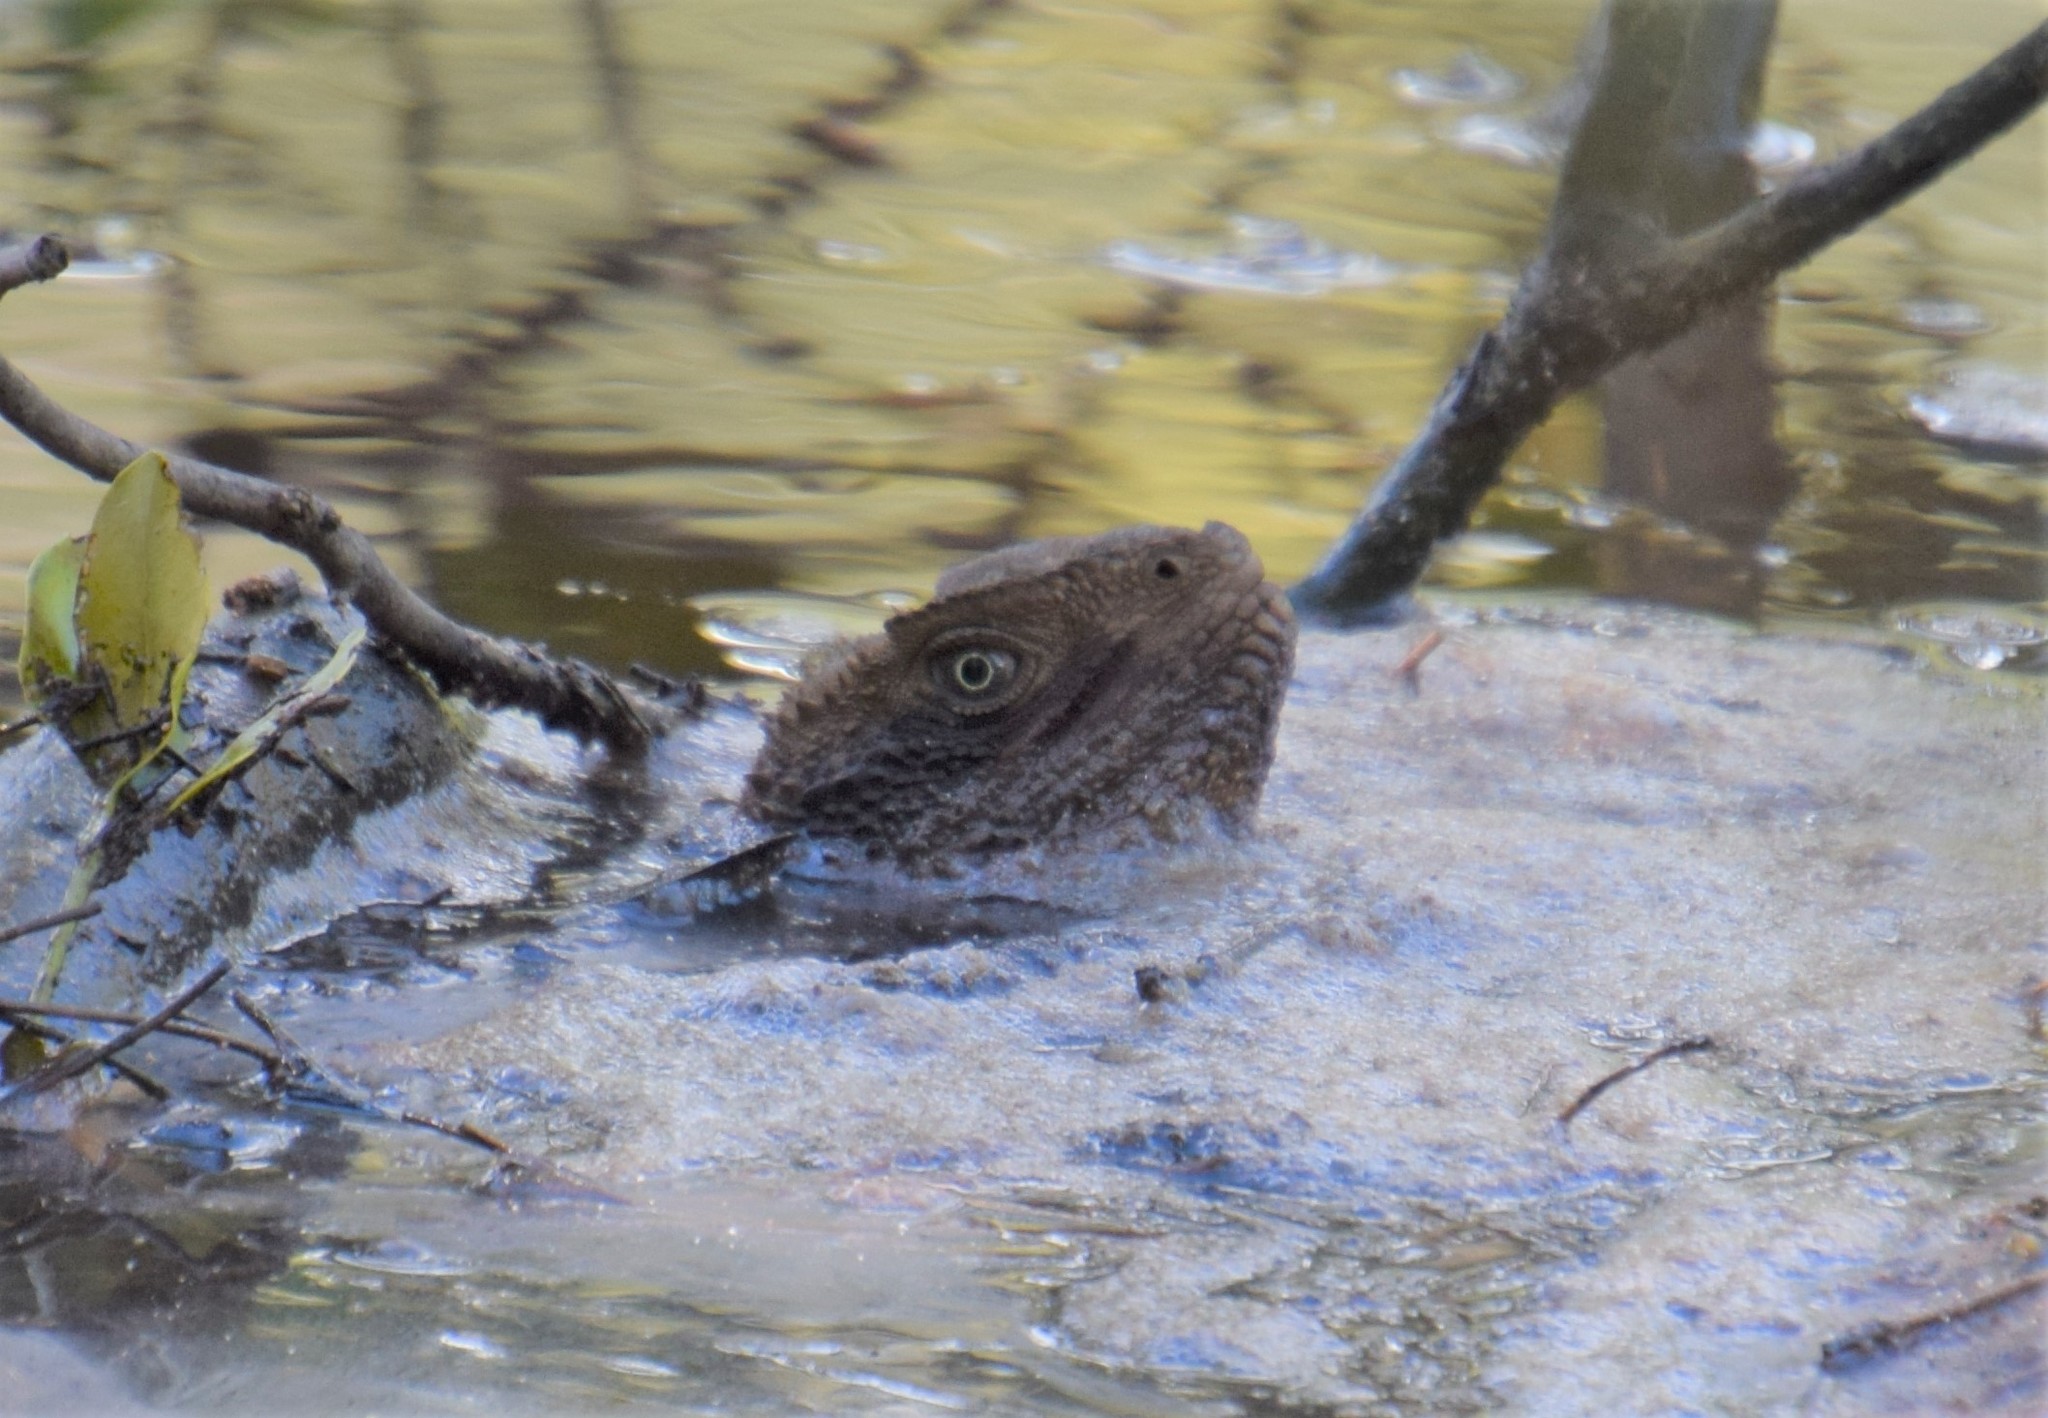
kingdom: Animalia
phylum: Chordata
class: Squamata
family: Agamidae
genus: Intellagama
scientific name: Intellagama lesueurii
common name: Eastern water dragon
